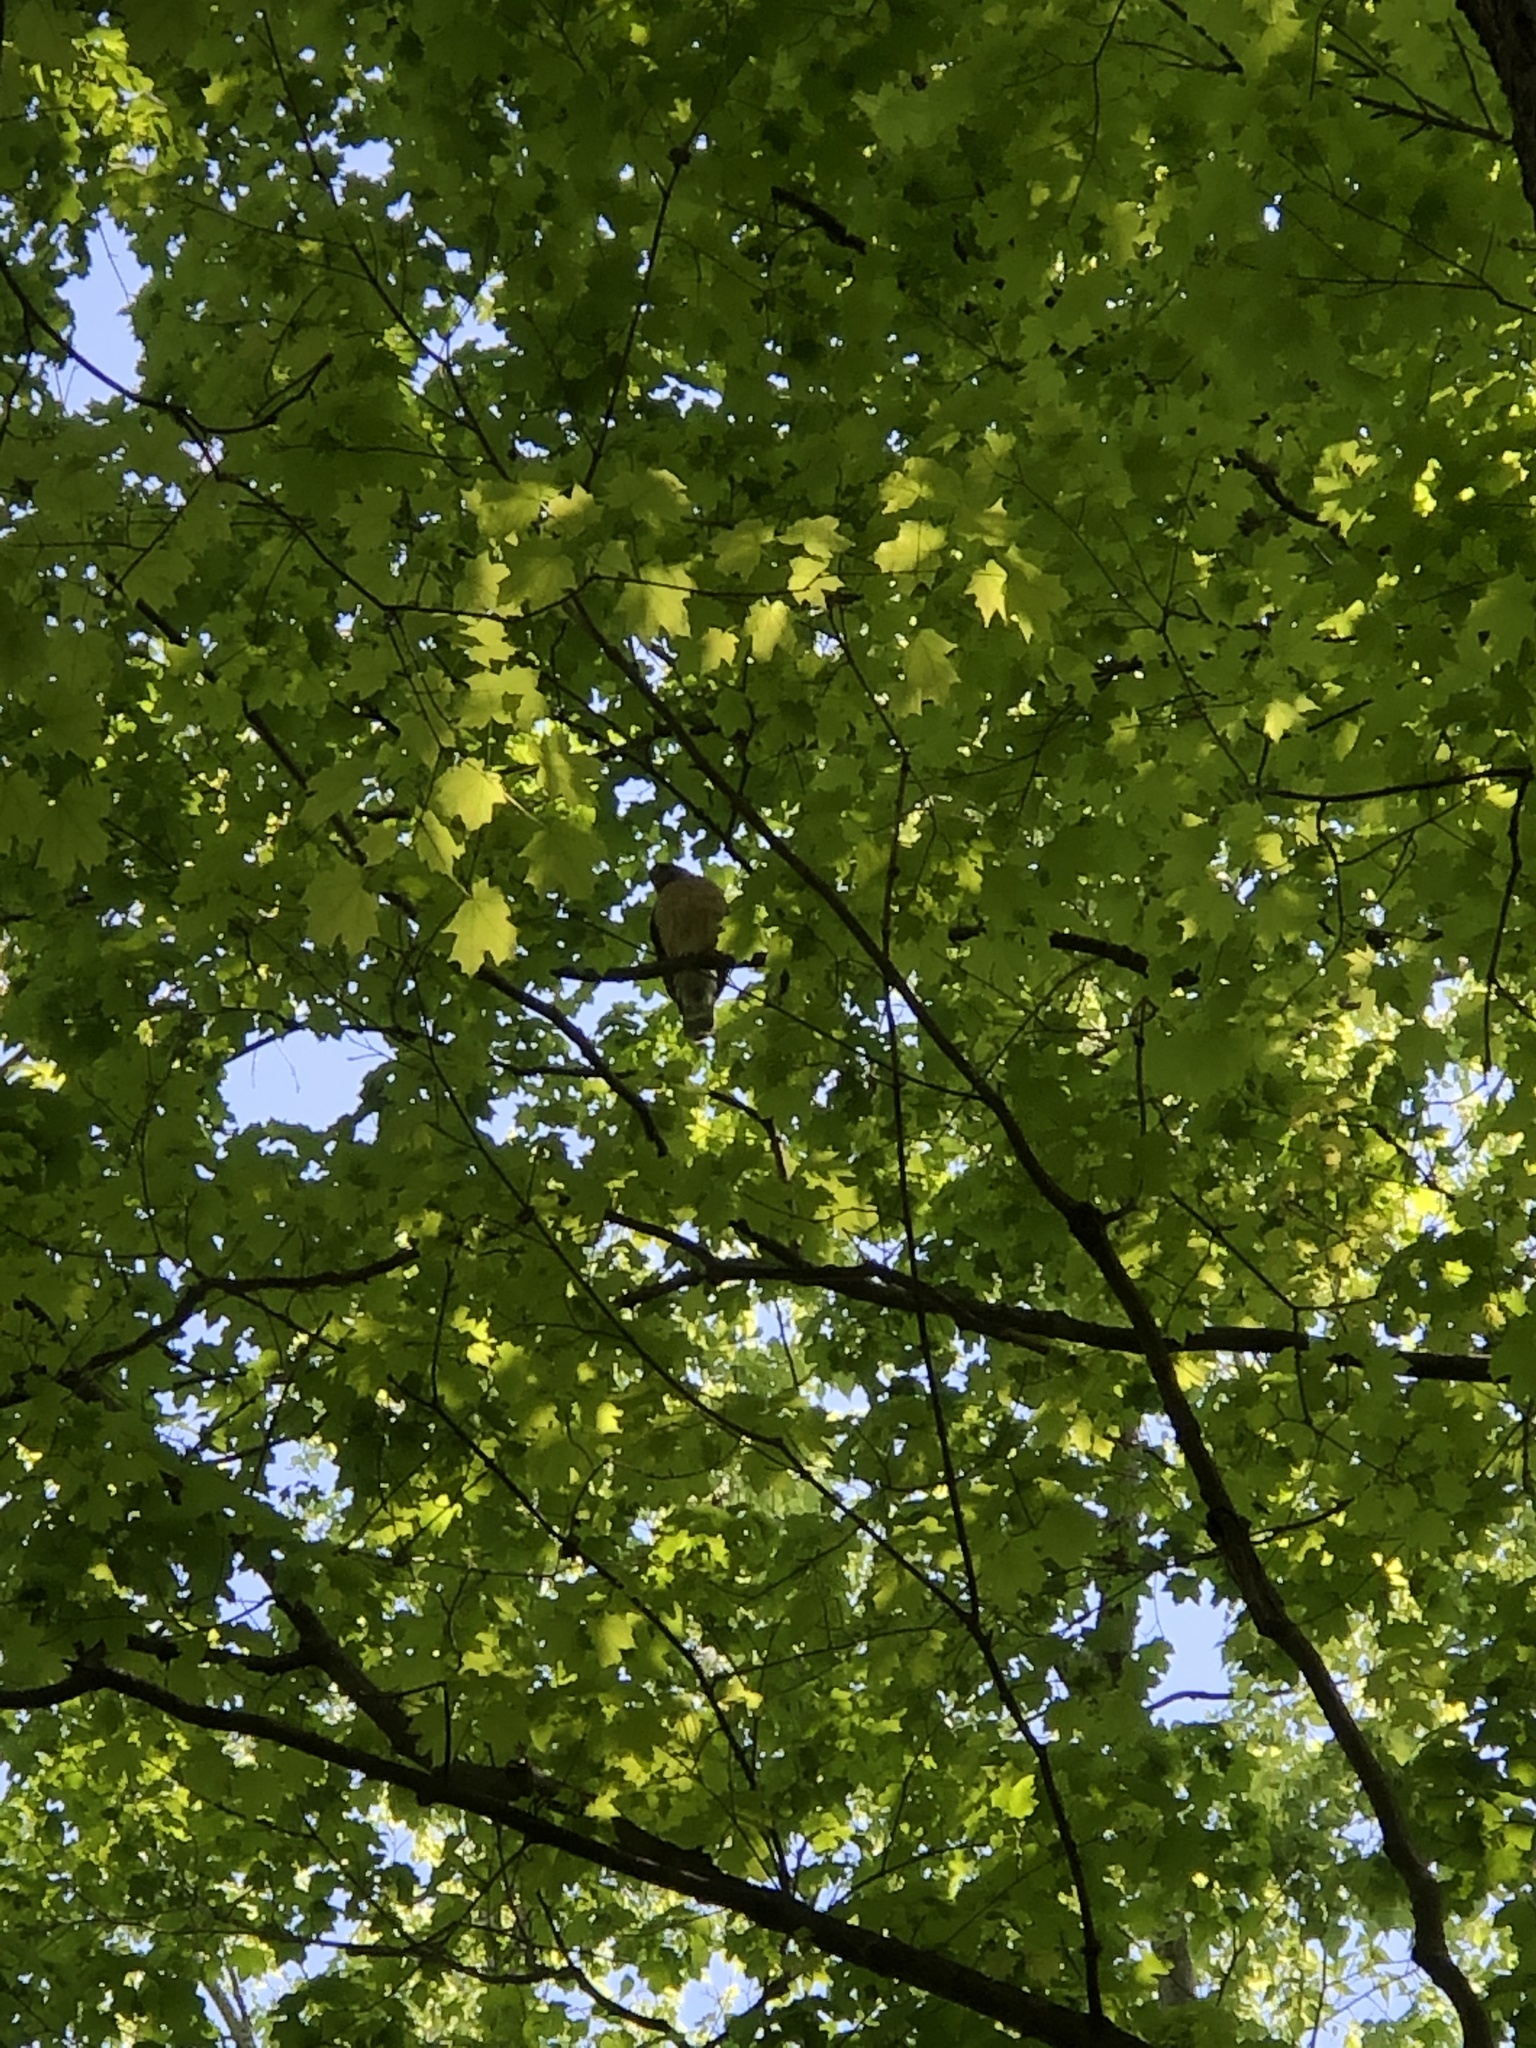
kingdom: Animalia
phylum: Chordata
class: Aves
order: Accipitriformes
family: Accipitridae
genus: Buteo
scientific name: Buteo lineatus
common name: Red-shouldered hawk
